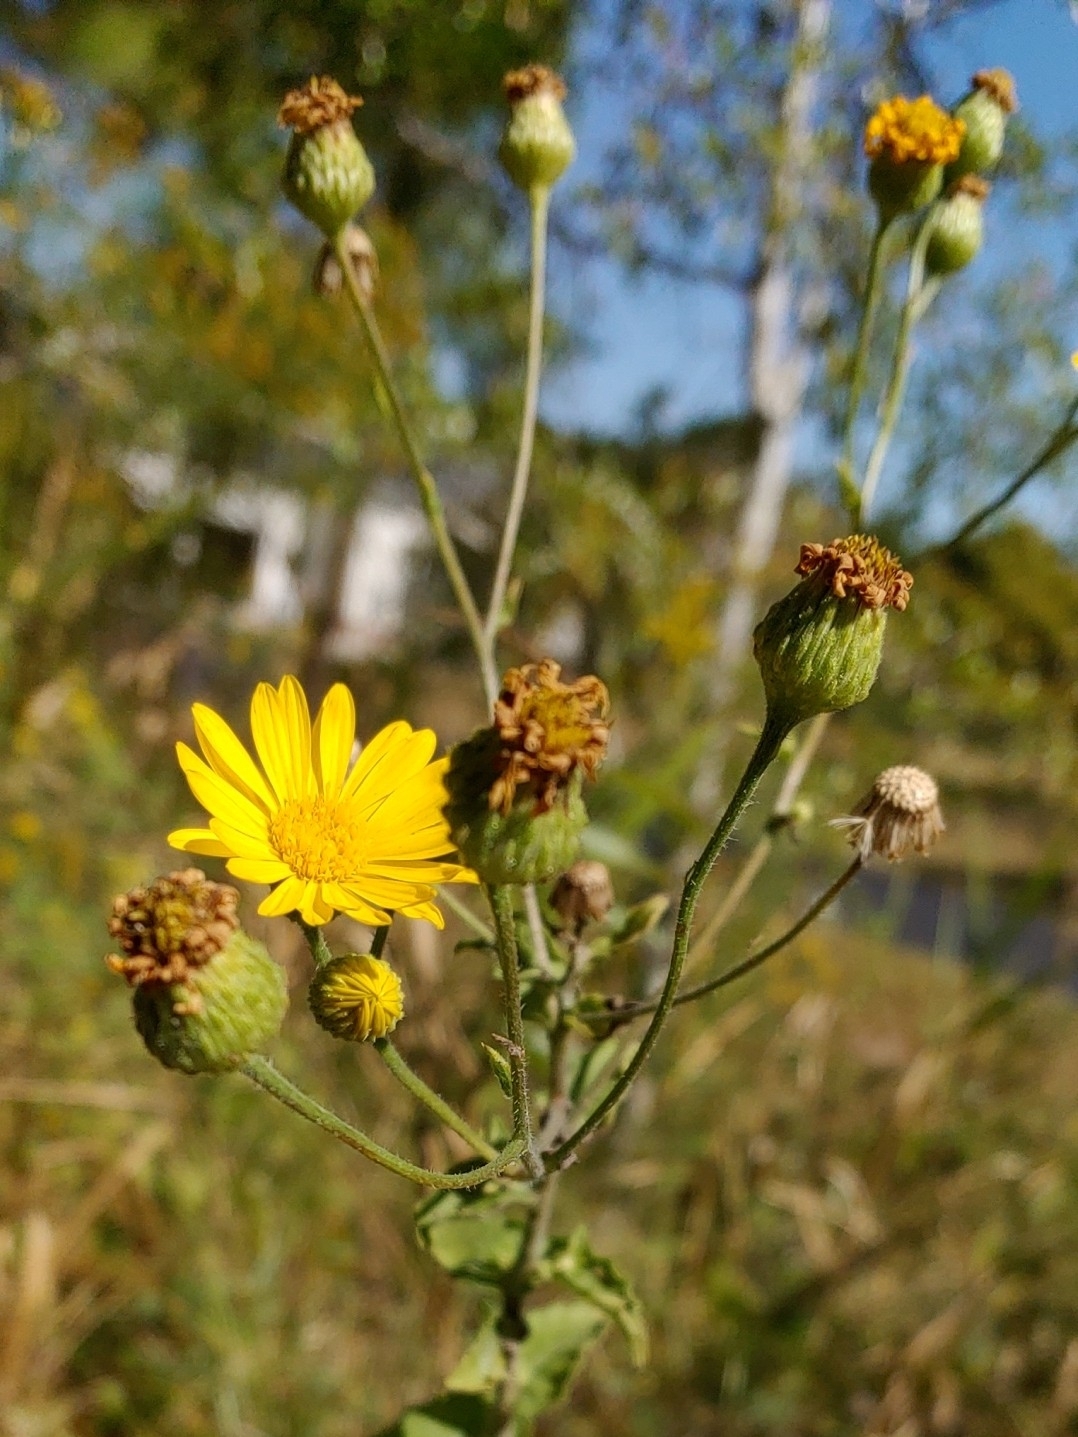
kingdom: Plantae
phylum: Tracheophyta
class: Magnoliopsida
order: Asterales
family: Asteraceae
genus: Heterotheca
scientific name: Heterotheca subaxillaris
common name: Camphorweed
